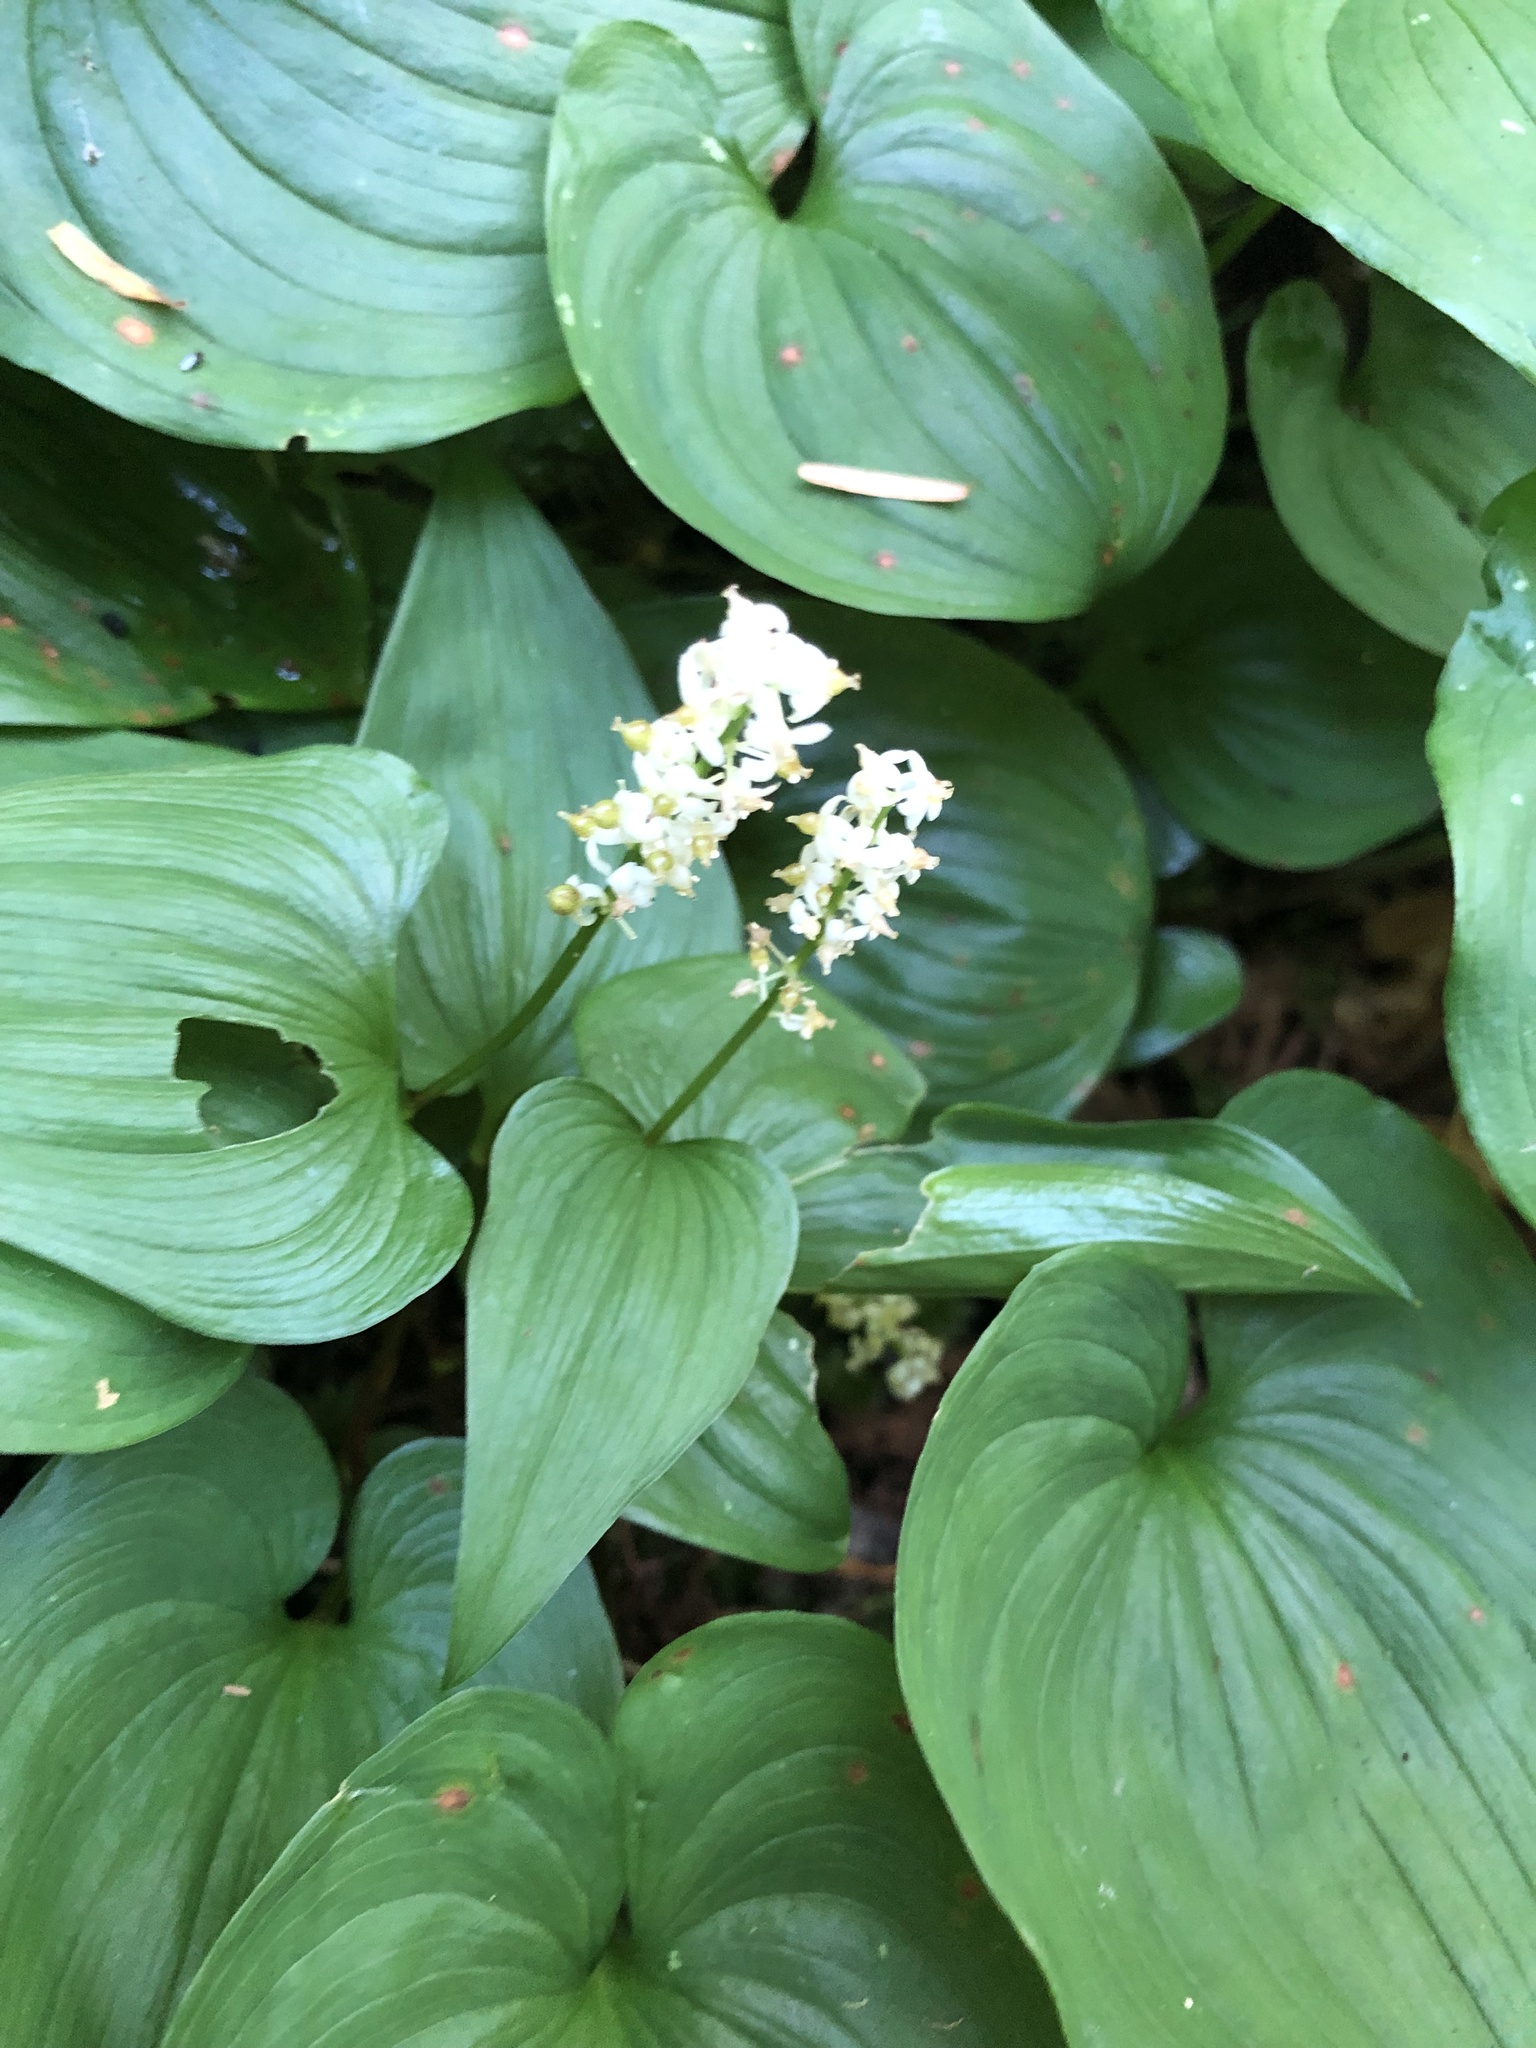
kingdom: Plantae
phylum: Tracheophyta
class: Liliopsida
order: Asparagales
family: Asparagaceae
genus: Maianthemum
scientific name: Maianthemum dilatatum
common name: False lily-of-the-valley
